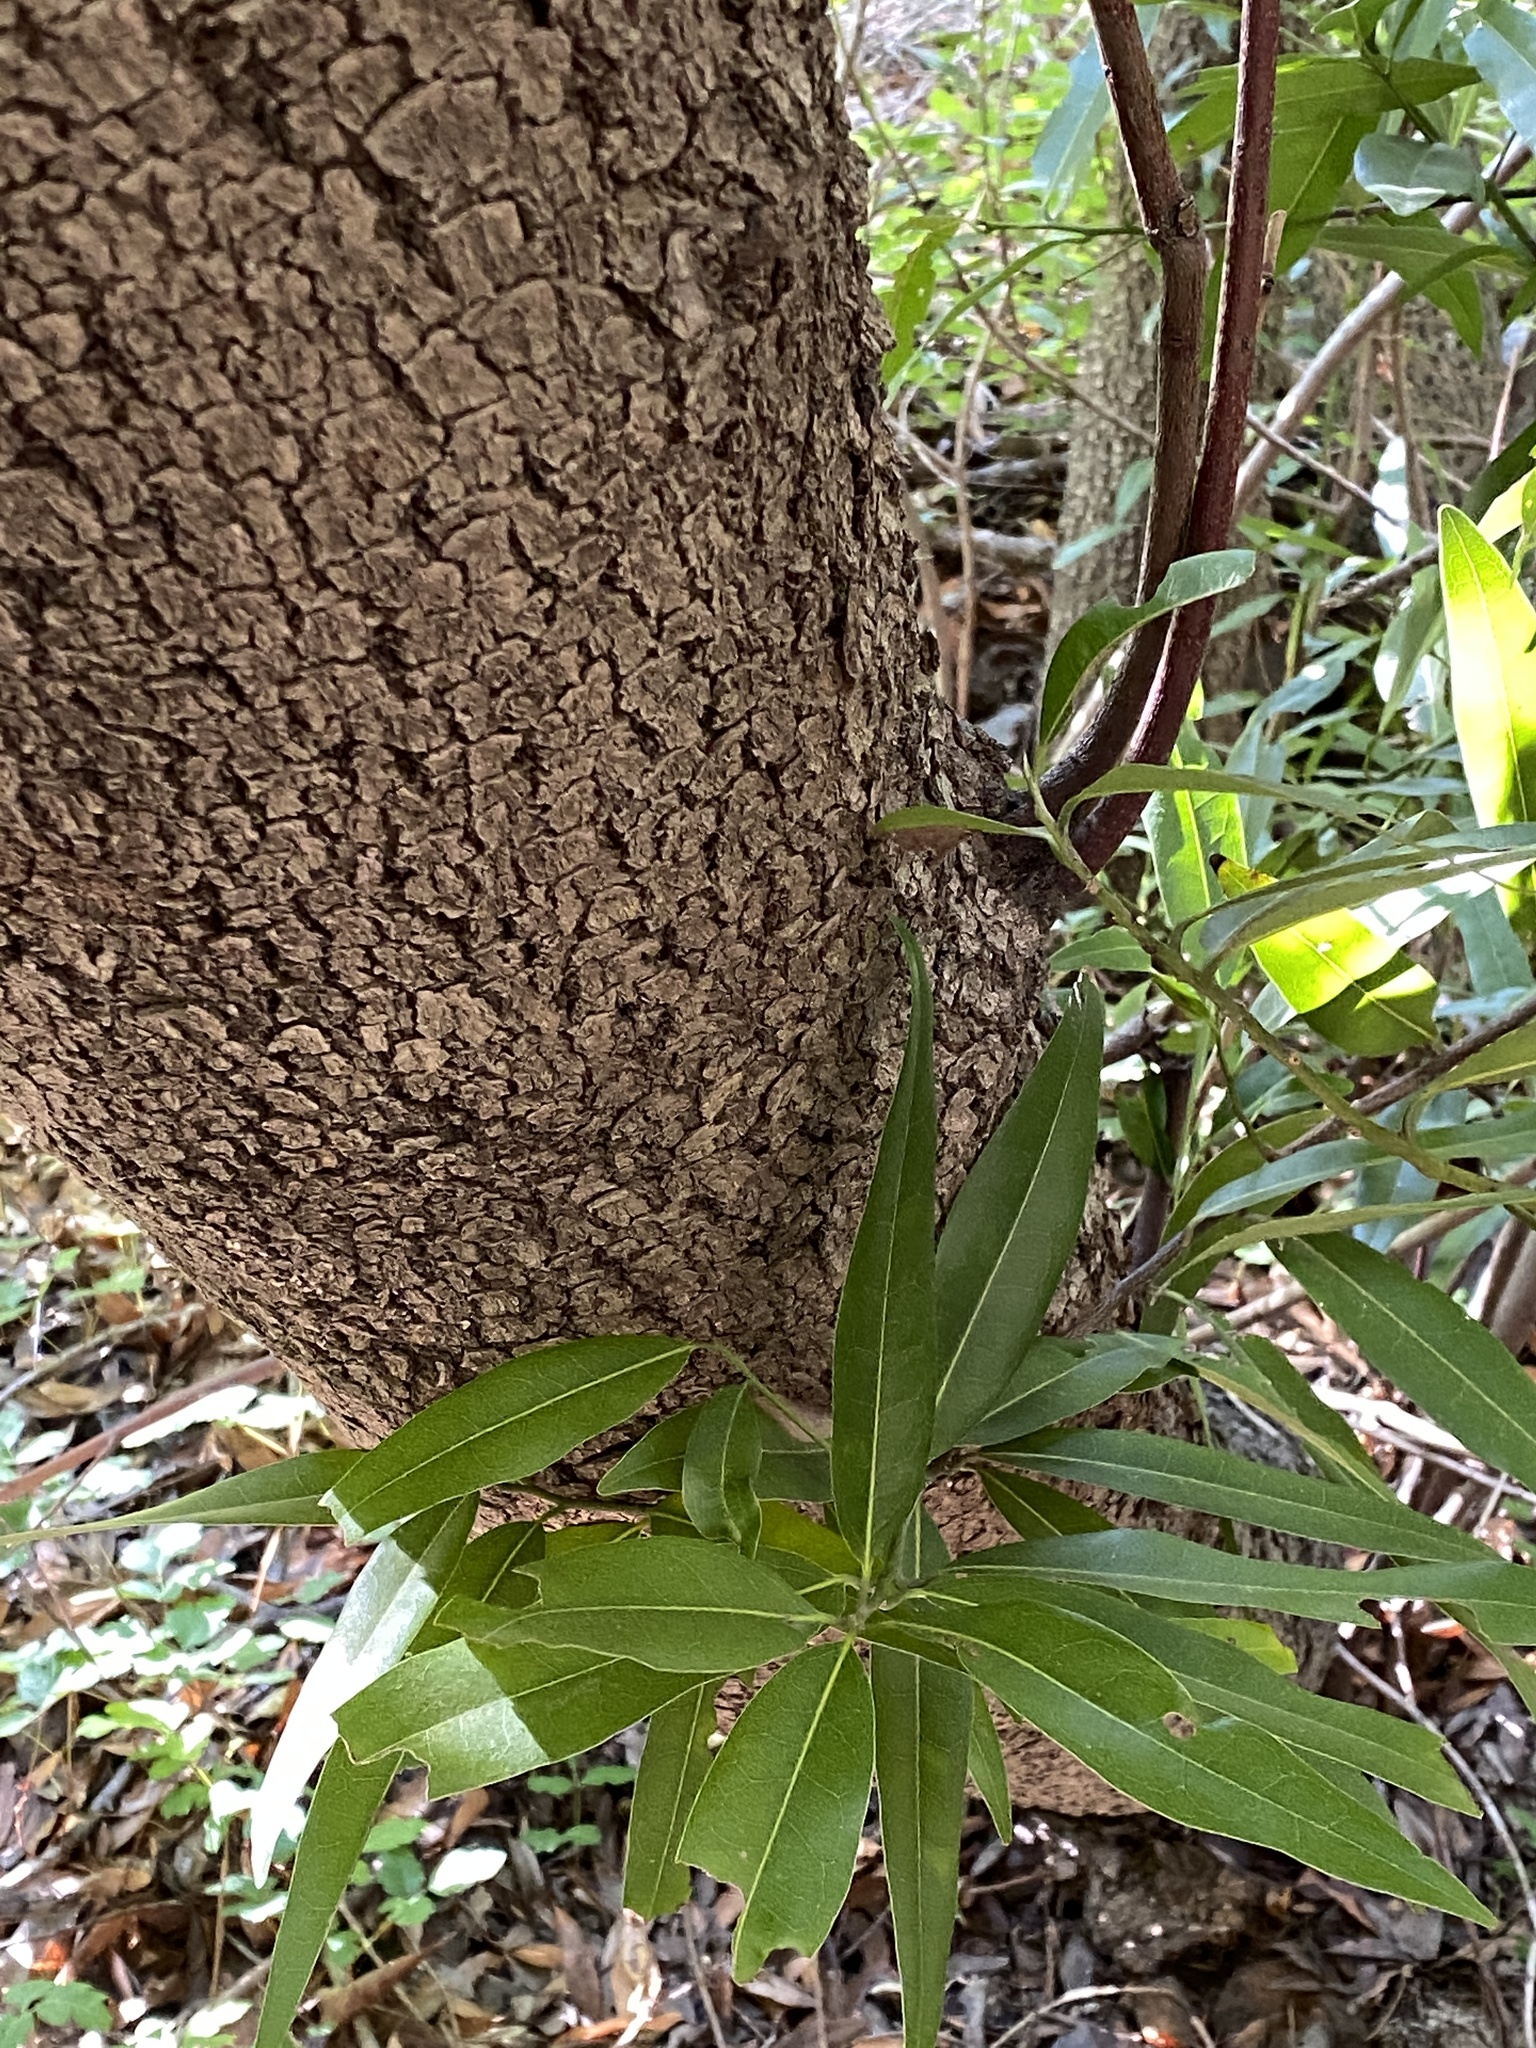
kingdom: Plantae
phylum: Tracheophyta
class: Magnoliopsida
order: Laurales
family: Lauraceae
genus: Umbellularia
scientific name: Umbellularia californica
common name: California bay
